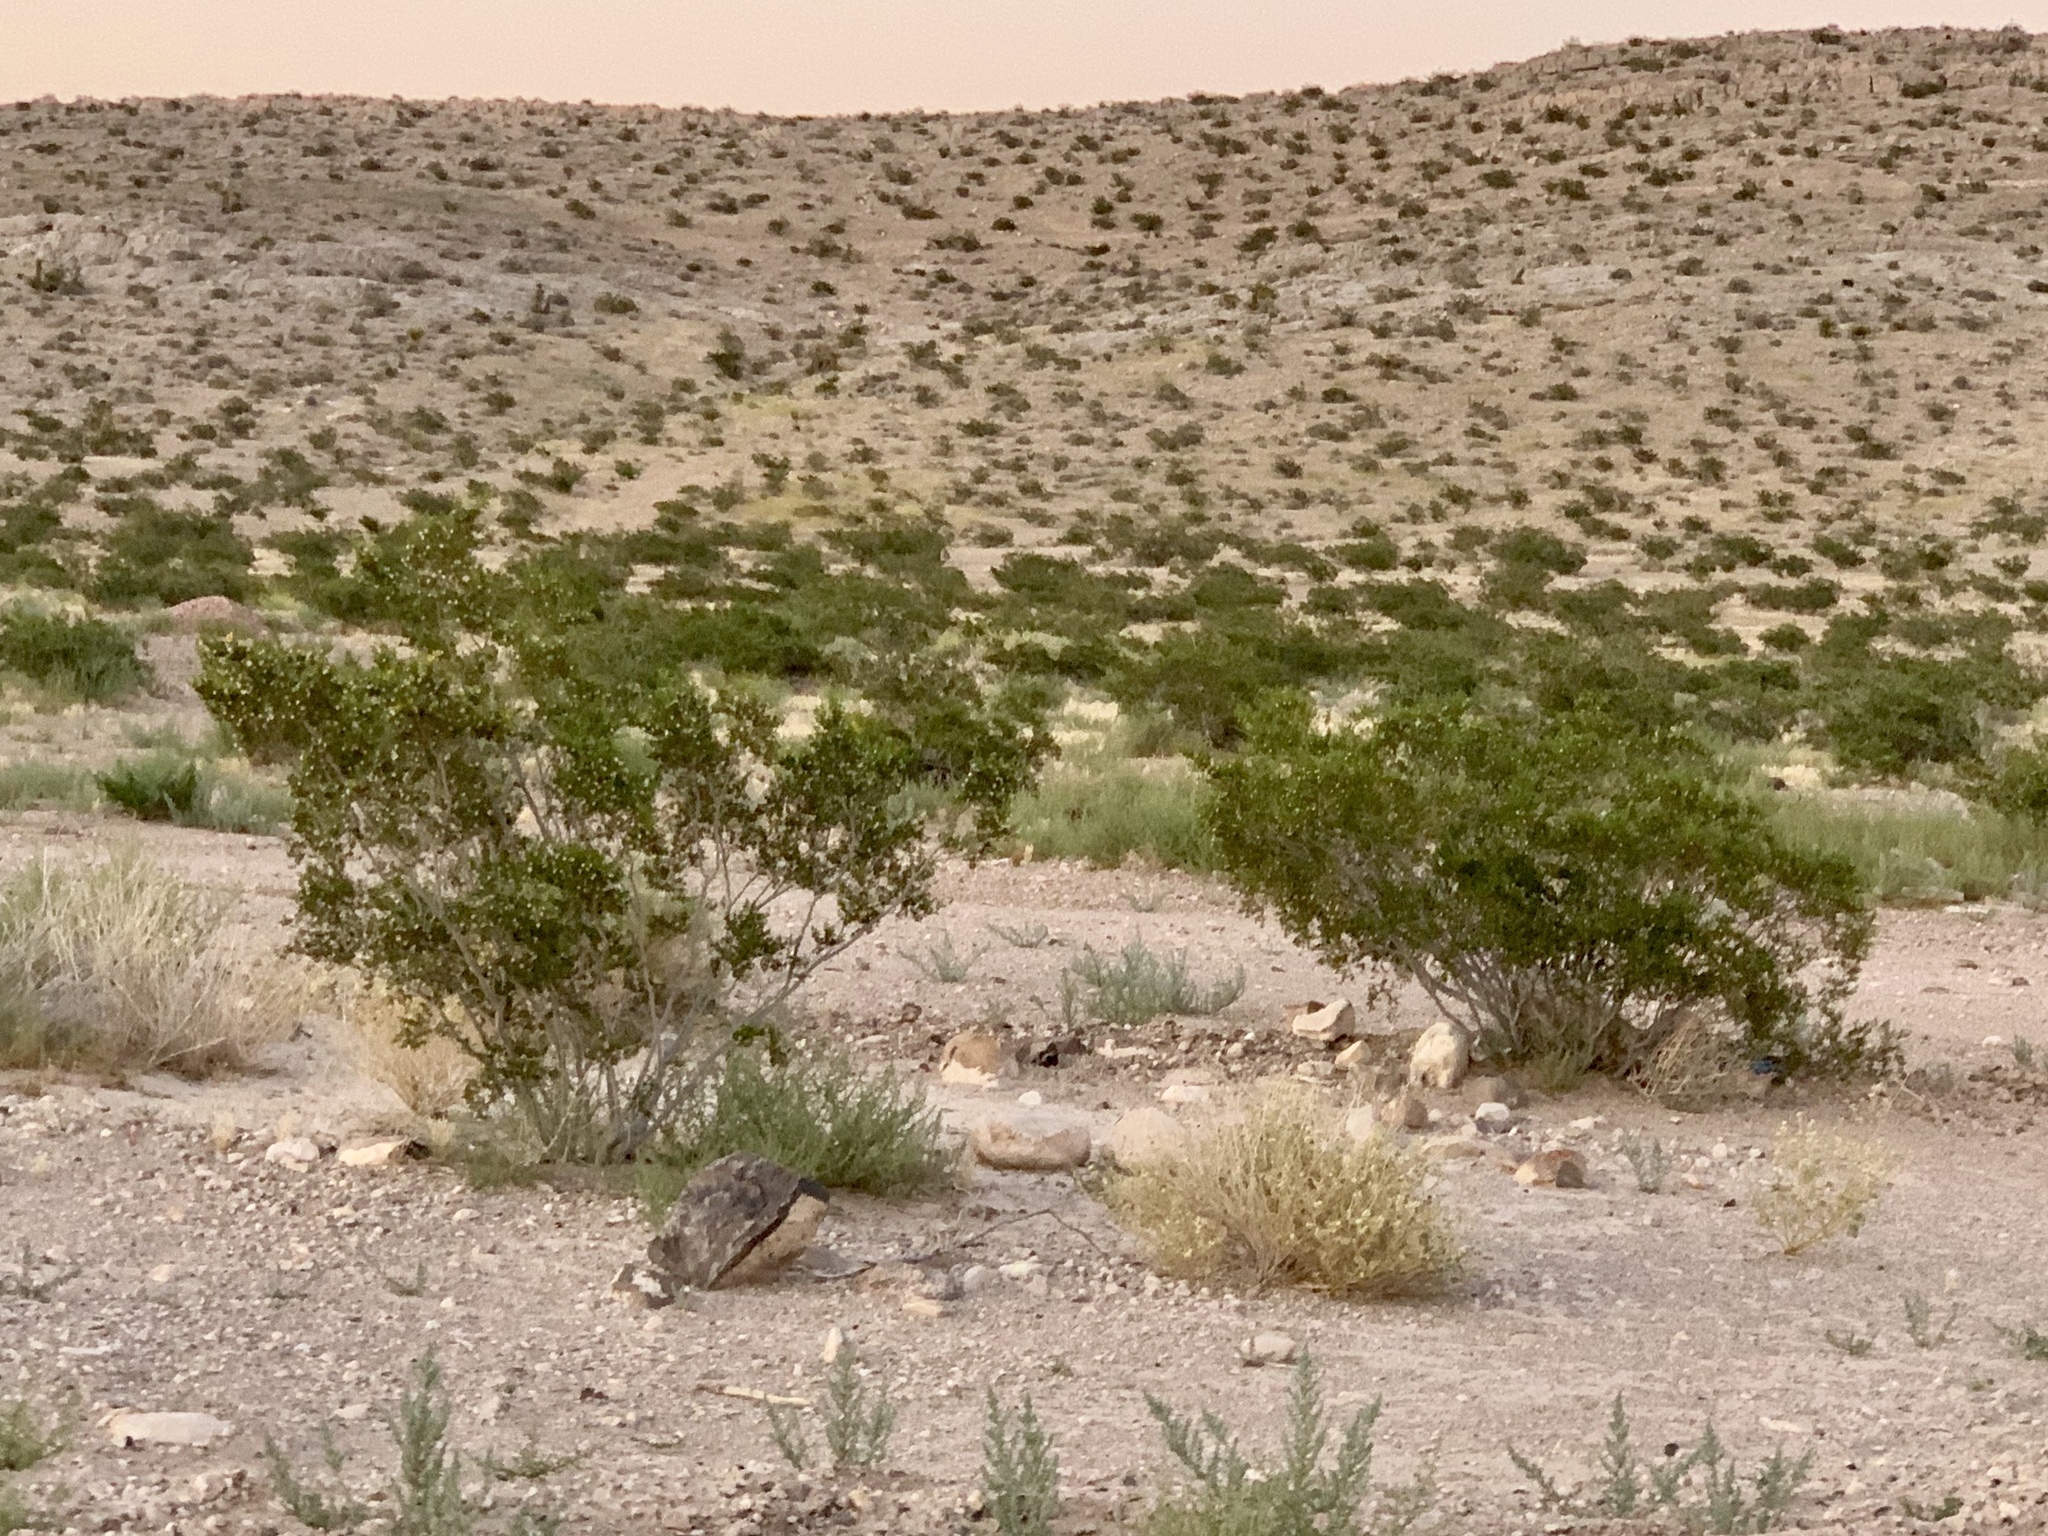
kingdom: Plantae
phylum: Tracheophyta
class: Magnoliopsida
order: Zygophyllales
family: Zygophyllaceae
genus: Larrea
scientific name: Larrea tridentata
